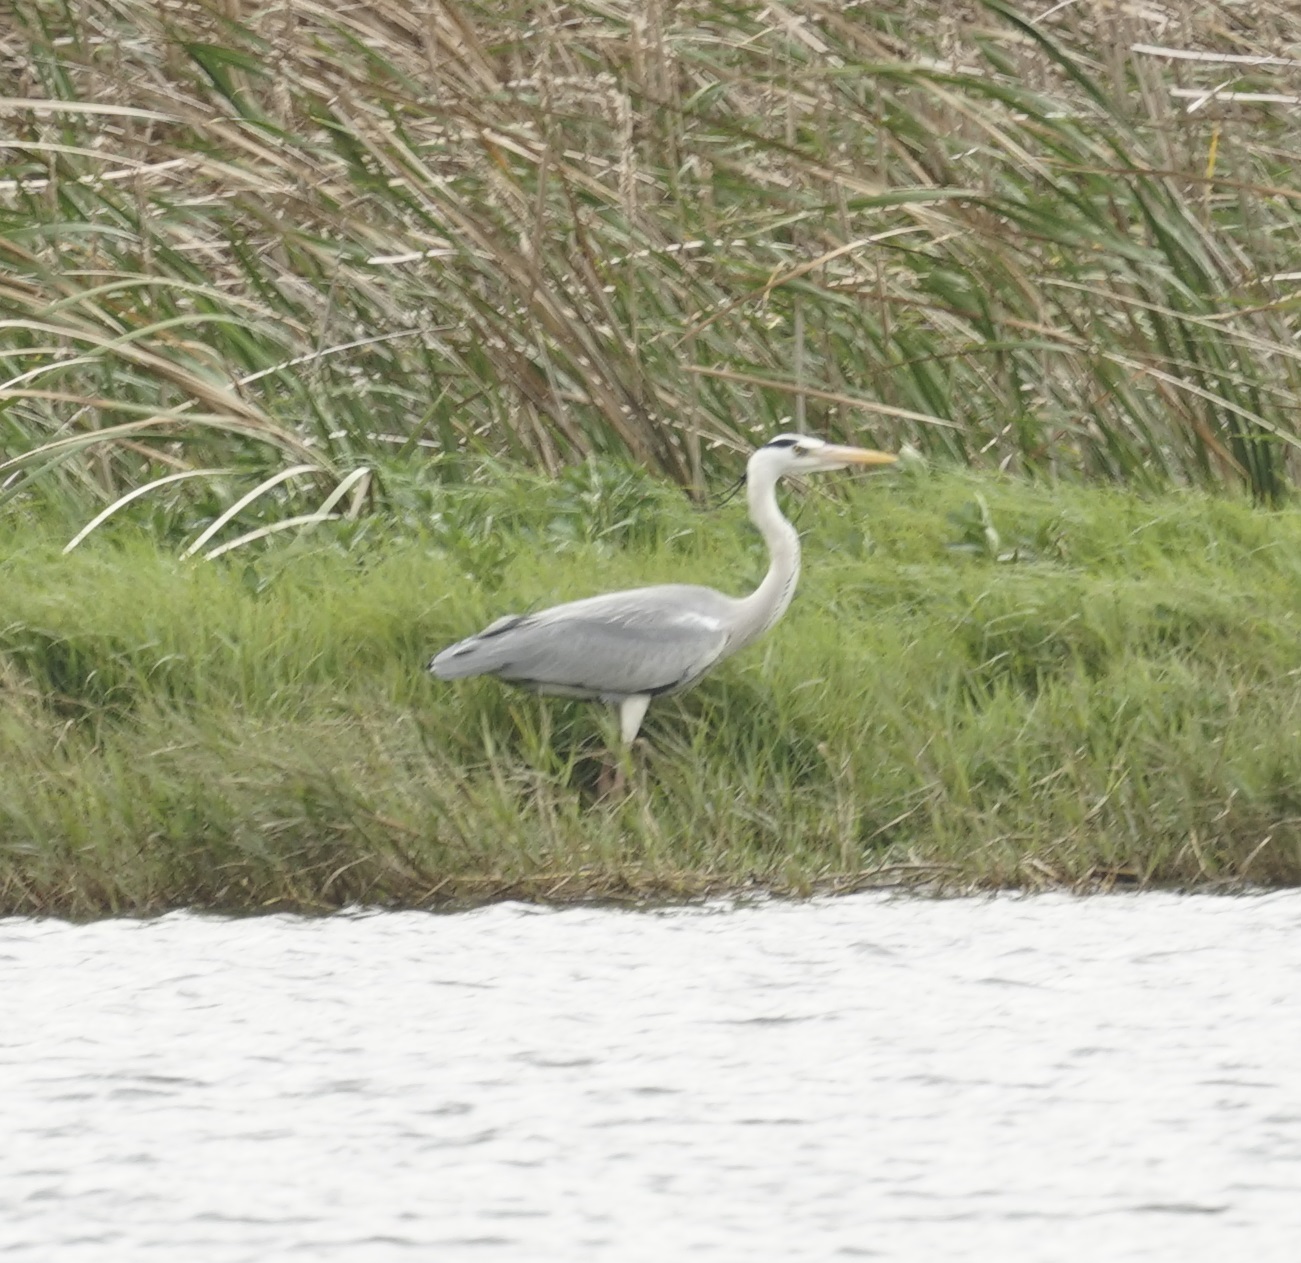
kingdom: Animalia
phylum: Chordata
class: Aves
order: Pelecaniformes
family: Ardeidae
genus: Ardea
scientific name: Ardea cinerea
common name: Grey heron
